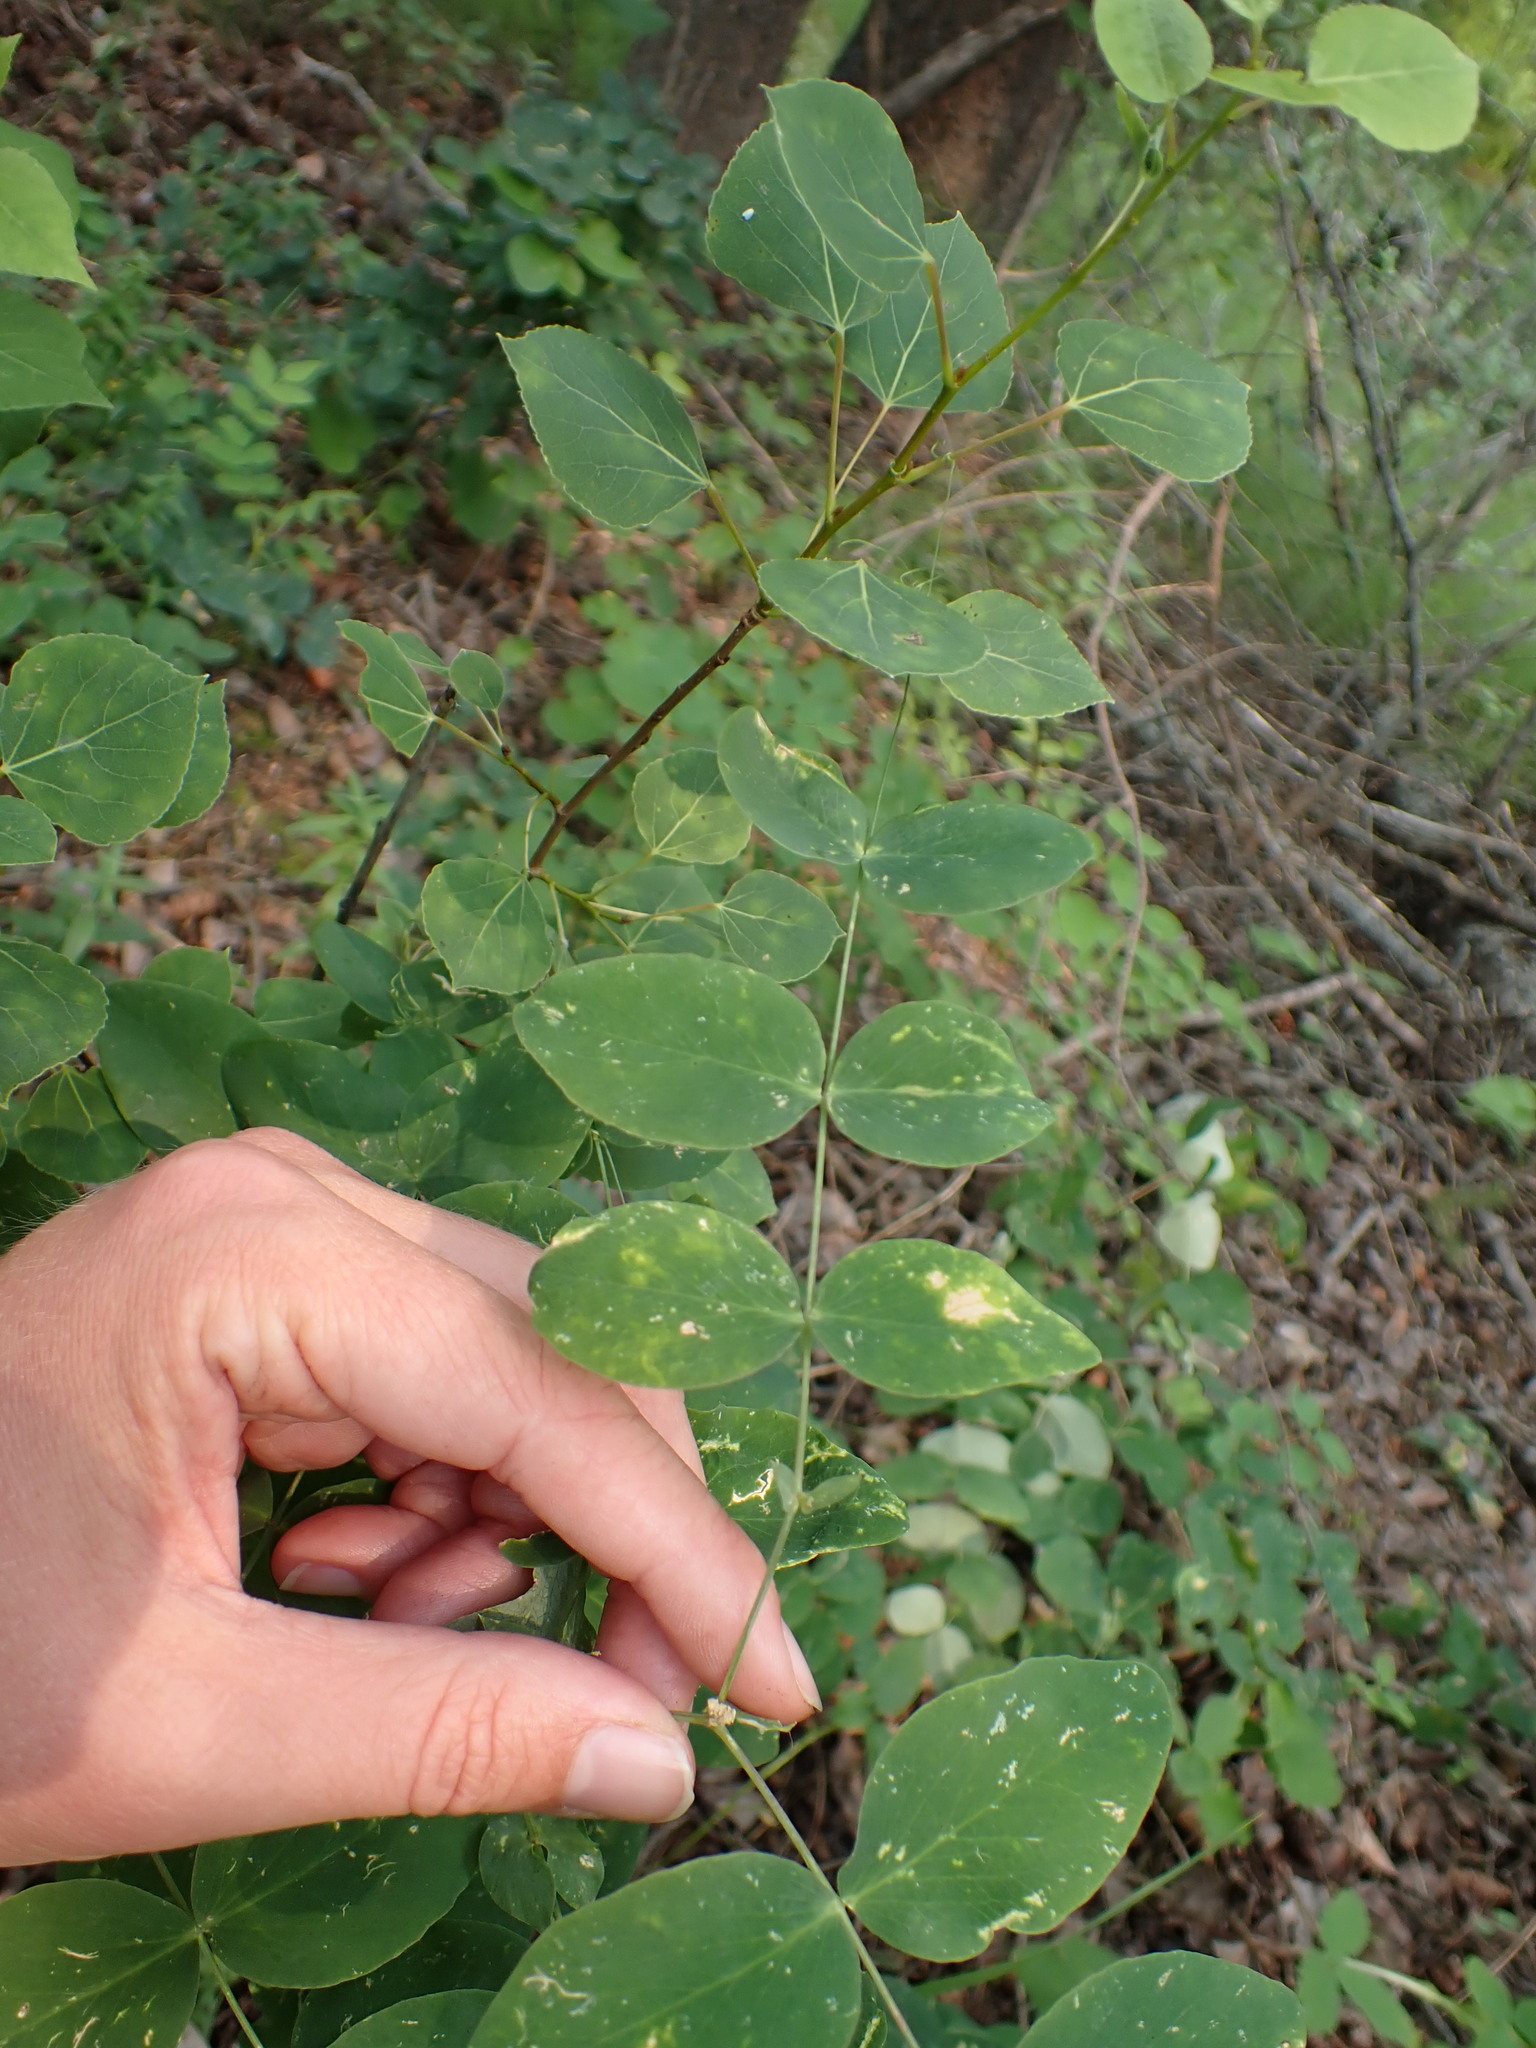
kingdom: Plantae
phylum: Tracheophyta
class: Magnoliopsida
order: Fabales
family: Fabaceae
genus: Lathyrus
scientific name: Lathyrus ochroleucus
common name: Pale vetchling
